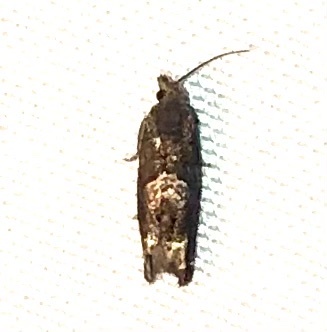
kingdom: Animalia
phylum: Arthropoda
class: Insecta
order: Lepidoptera
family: Tortricidae
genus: Eucosma
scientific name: Eucosma parmatana
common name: Aster eucosma moth
